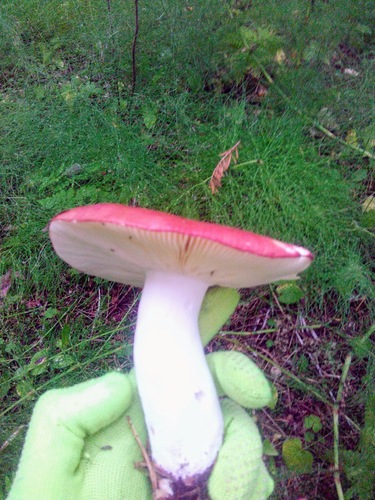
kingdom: Fungi
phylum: Basidiomycota
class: Agaricomycetes
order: Russulales
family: Russulaceae
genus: Russula
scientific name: Russula sanguinea
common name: Bloody brittlegill
